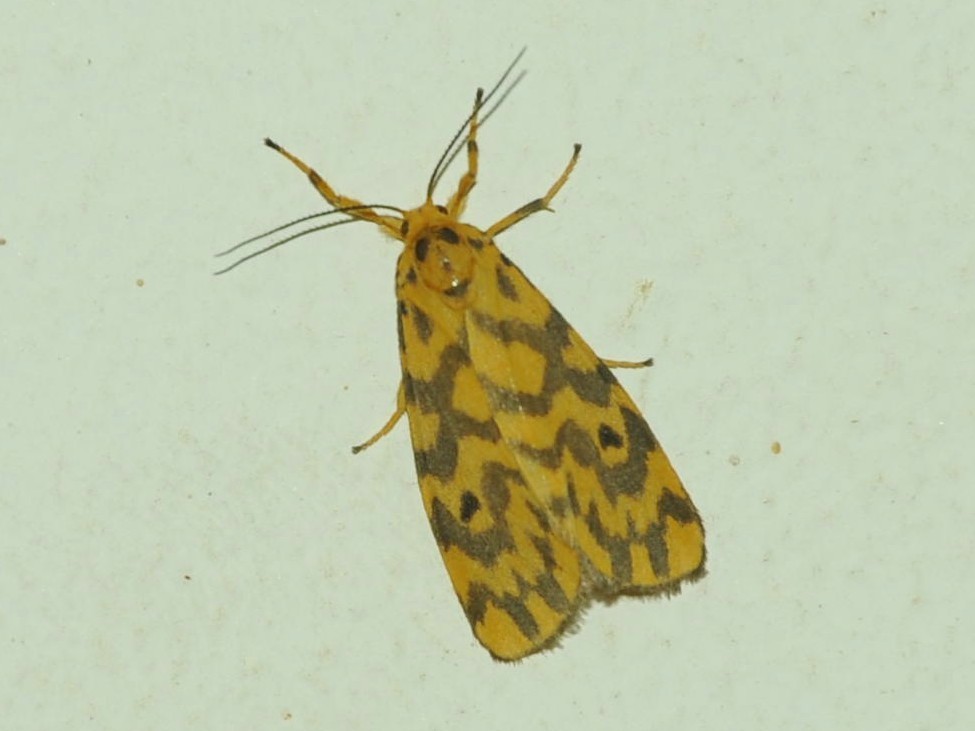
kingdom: Animalia
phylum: Arthropoda
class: Insecta
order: Lepidoptera
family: Erebidae
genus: Nepita
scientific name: Nepita conferta
